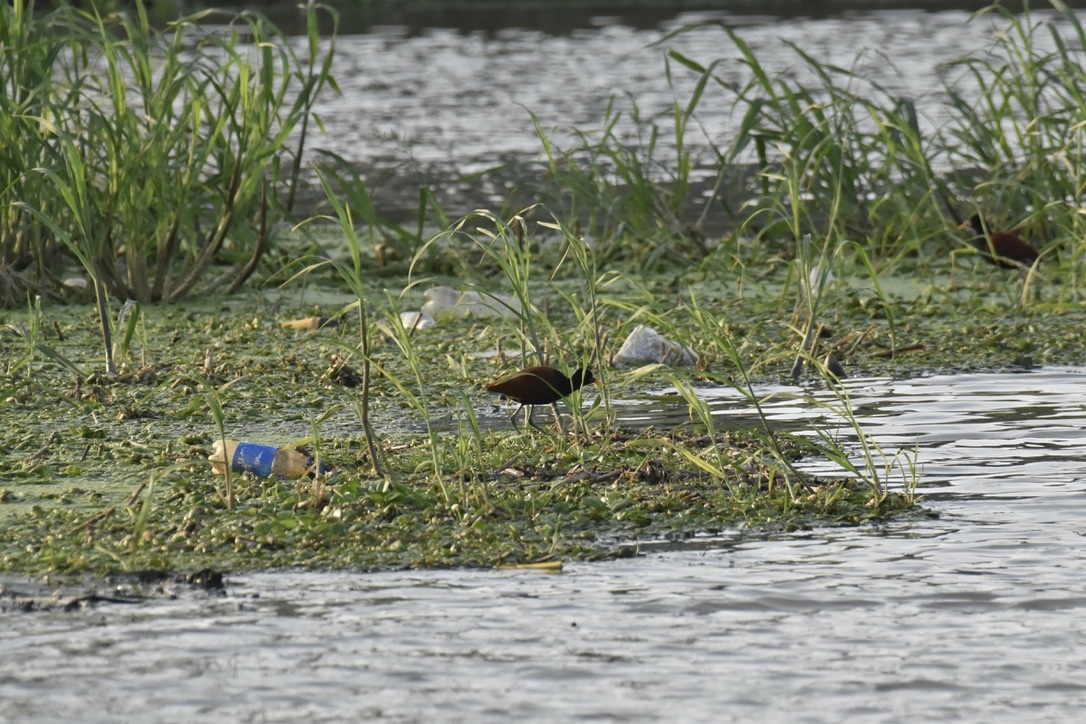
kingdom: Animalia
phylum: Chordata
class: Aves
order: Charadriiformes
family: Jacanidae
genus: Jacana
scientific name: Jacana jacana
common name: Wattled jacana
